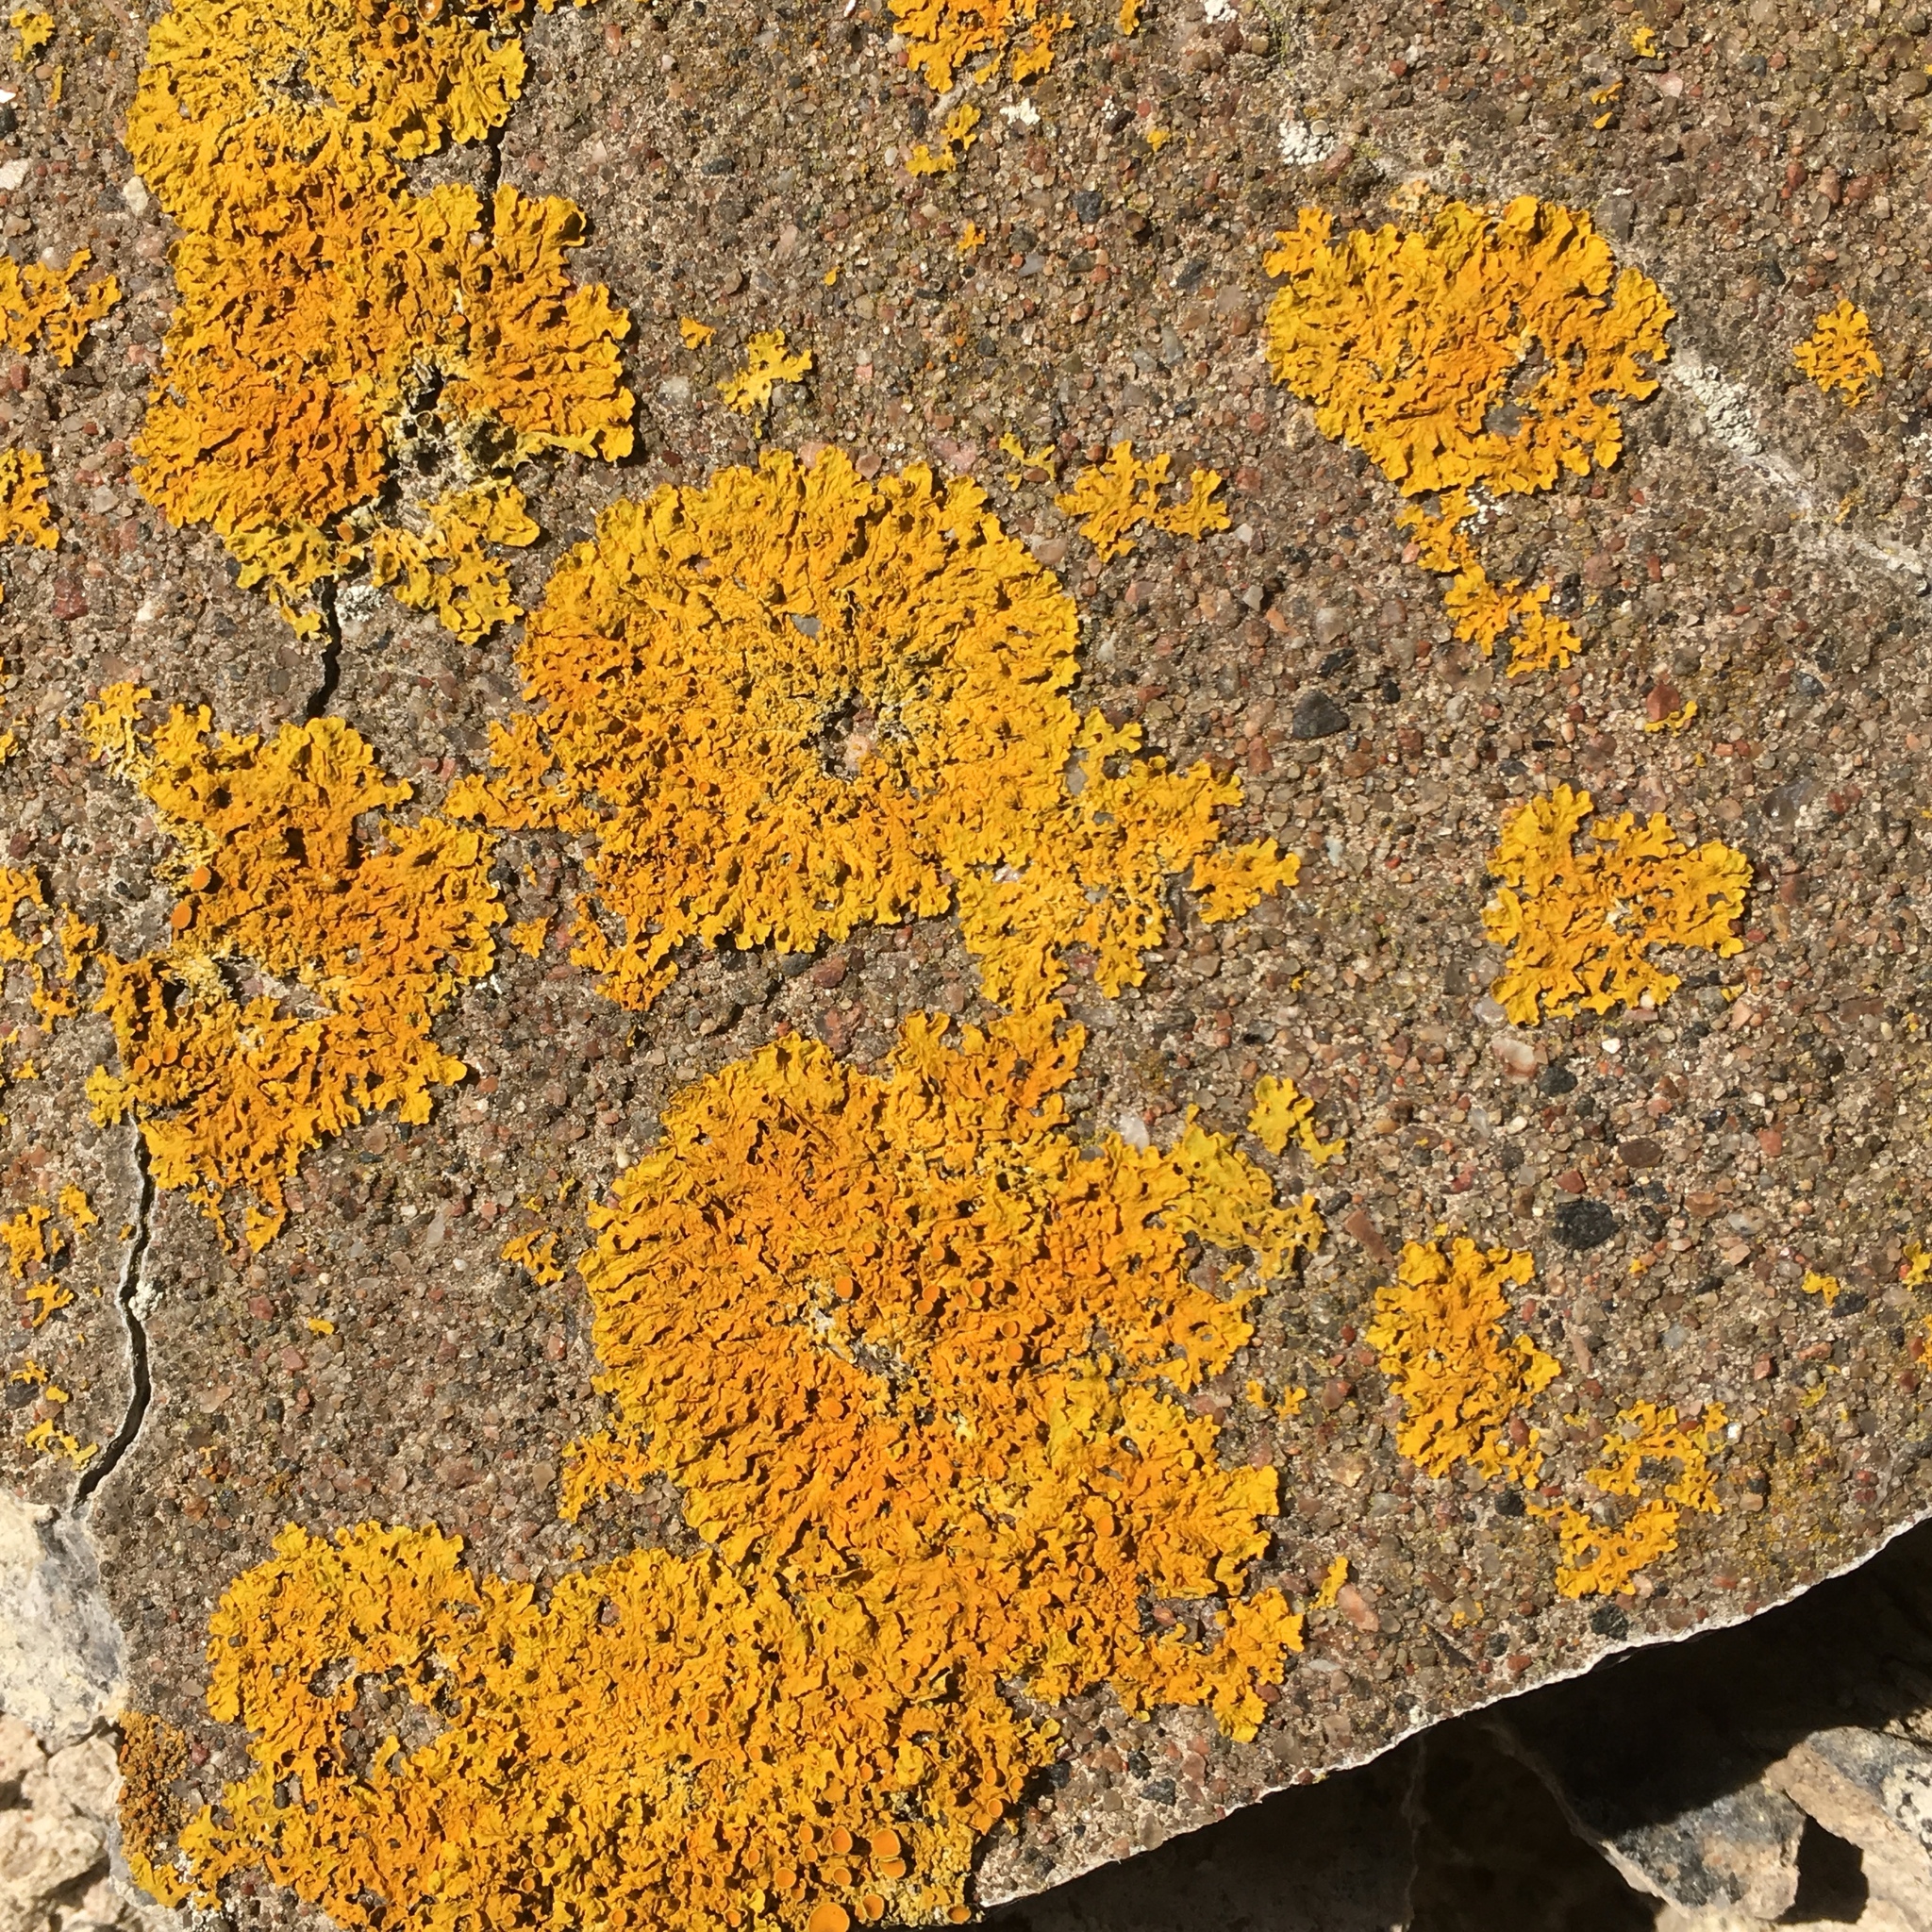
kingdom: Fungi
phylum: Ascomycota
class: Lecanoromycetes
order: Teloschistales
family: Teloschistaceae
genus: Xanthoria
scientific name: Xanthoria parietina
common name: Common orange lichen
